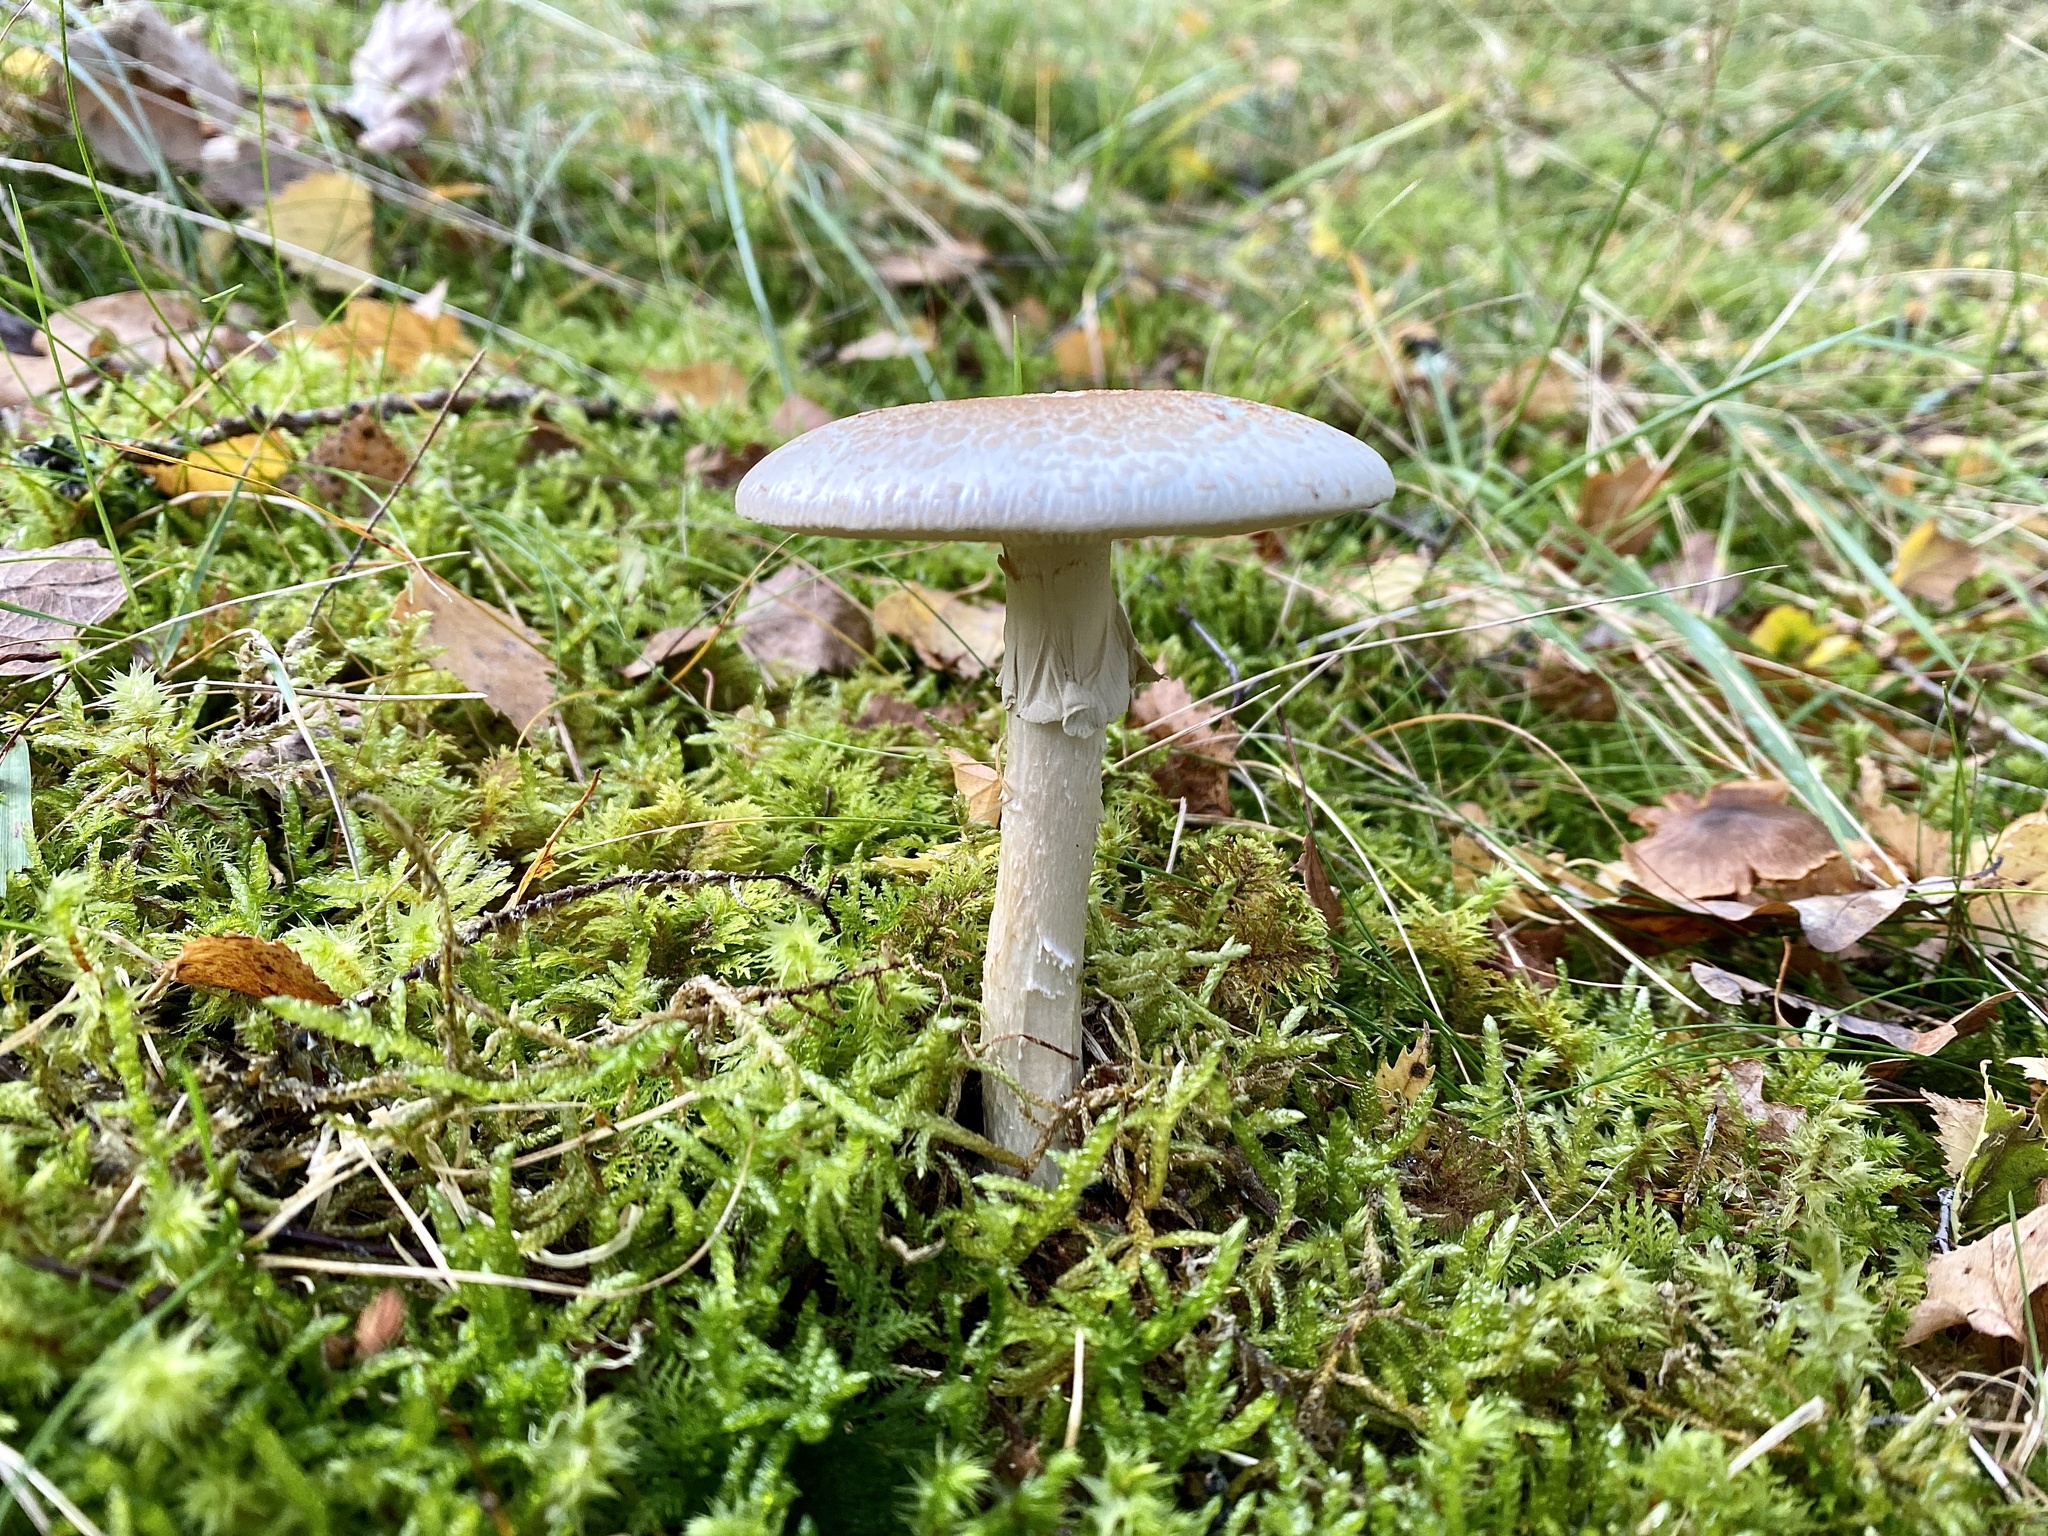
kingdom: Fungi
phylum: Basidiomycota
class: Agaricomycetes
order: Agaricales
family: Amanitaceae
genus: Amanita
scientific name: Amanita citrina
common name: False death-cap
